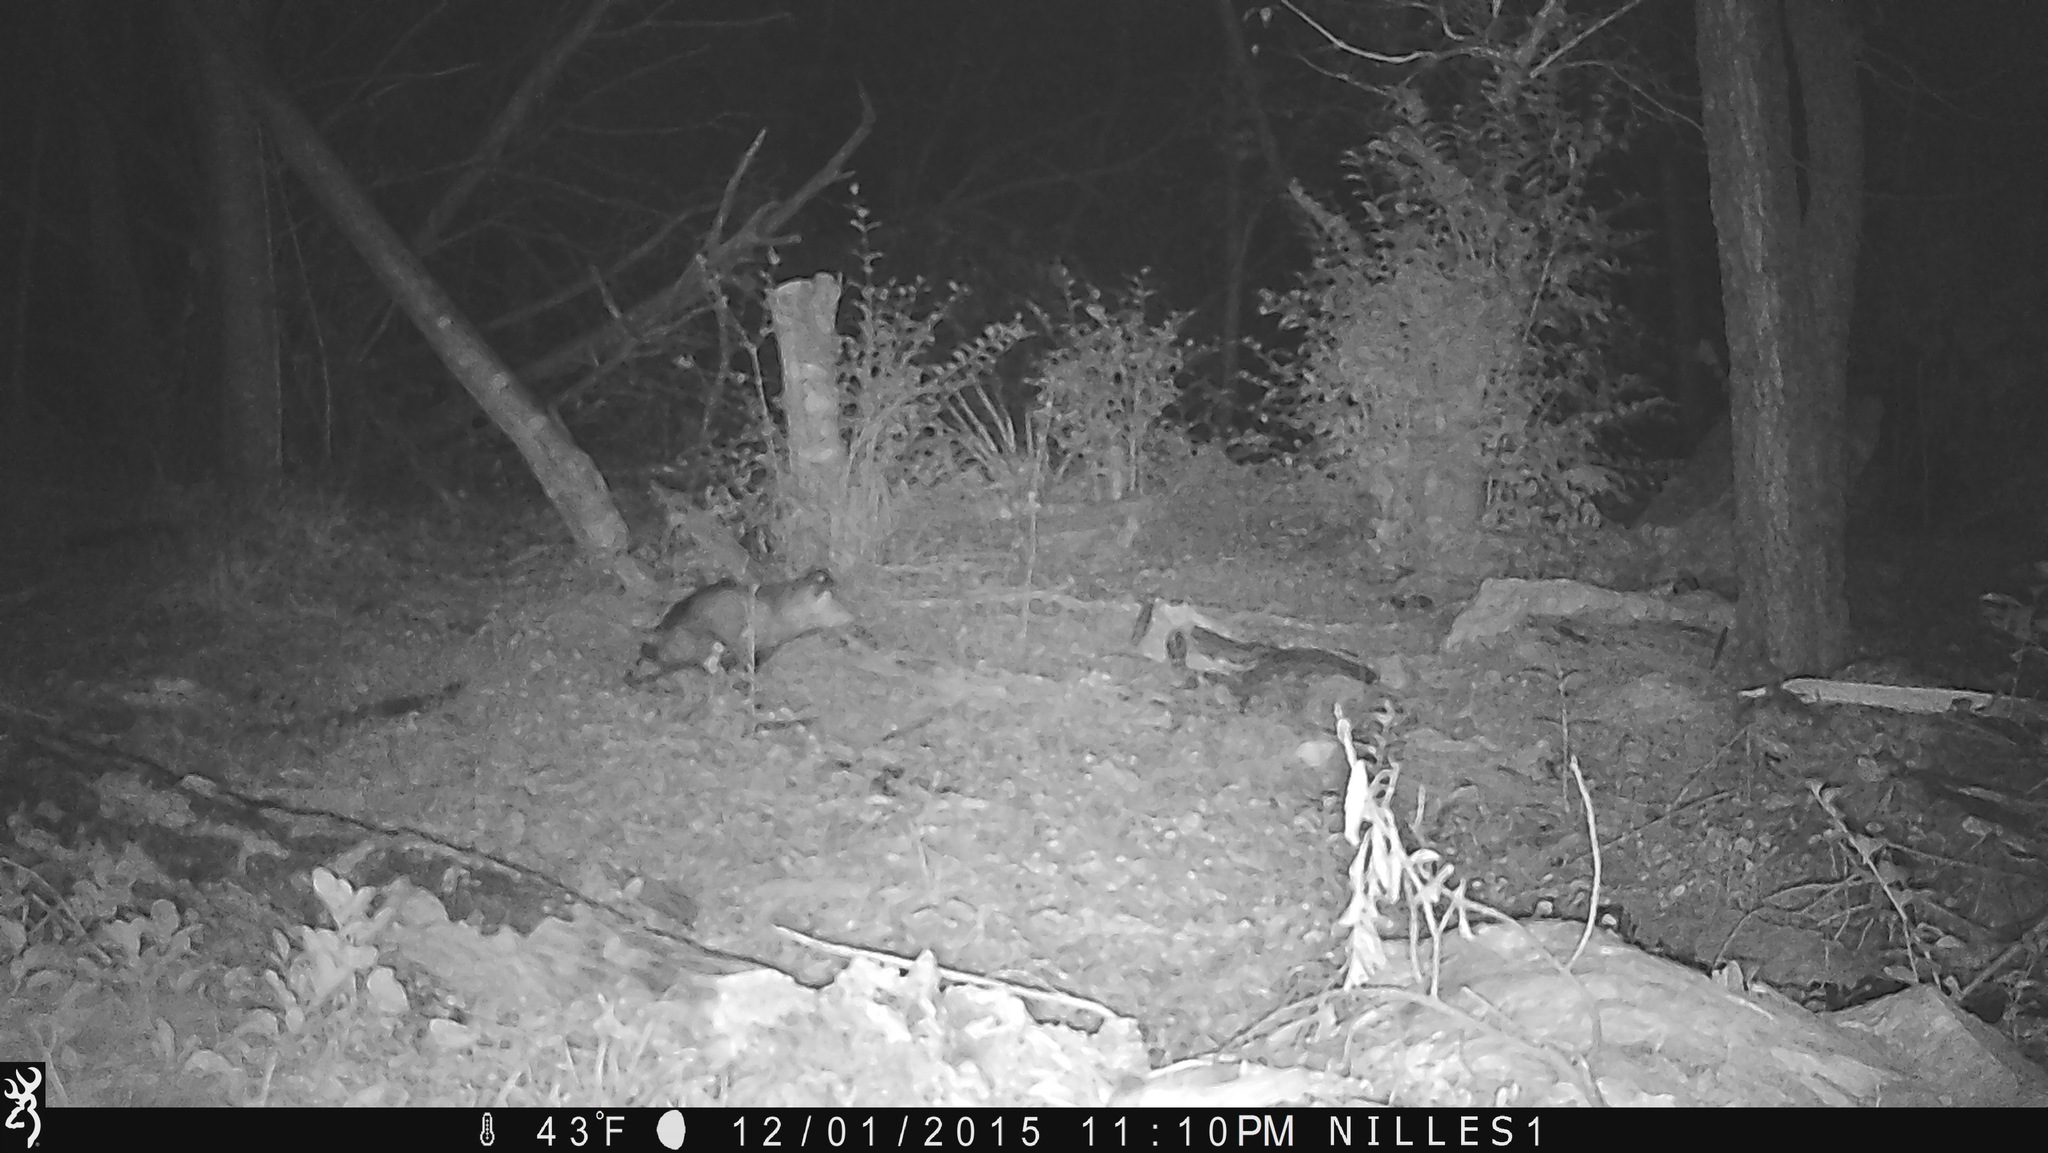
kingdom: Animalia
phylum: Chordata
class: Mammalia
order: Didelphimorphia
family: Didelphidae
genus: Didelphis
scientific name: Didelphis virginiana
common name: Virginia opossum
